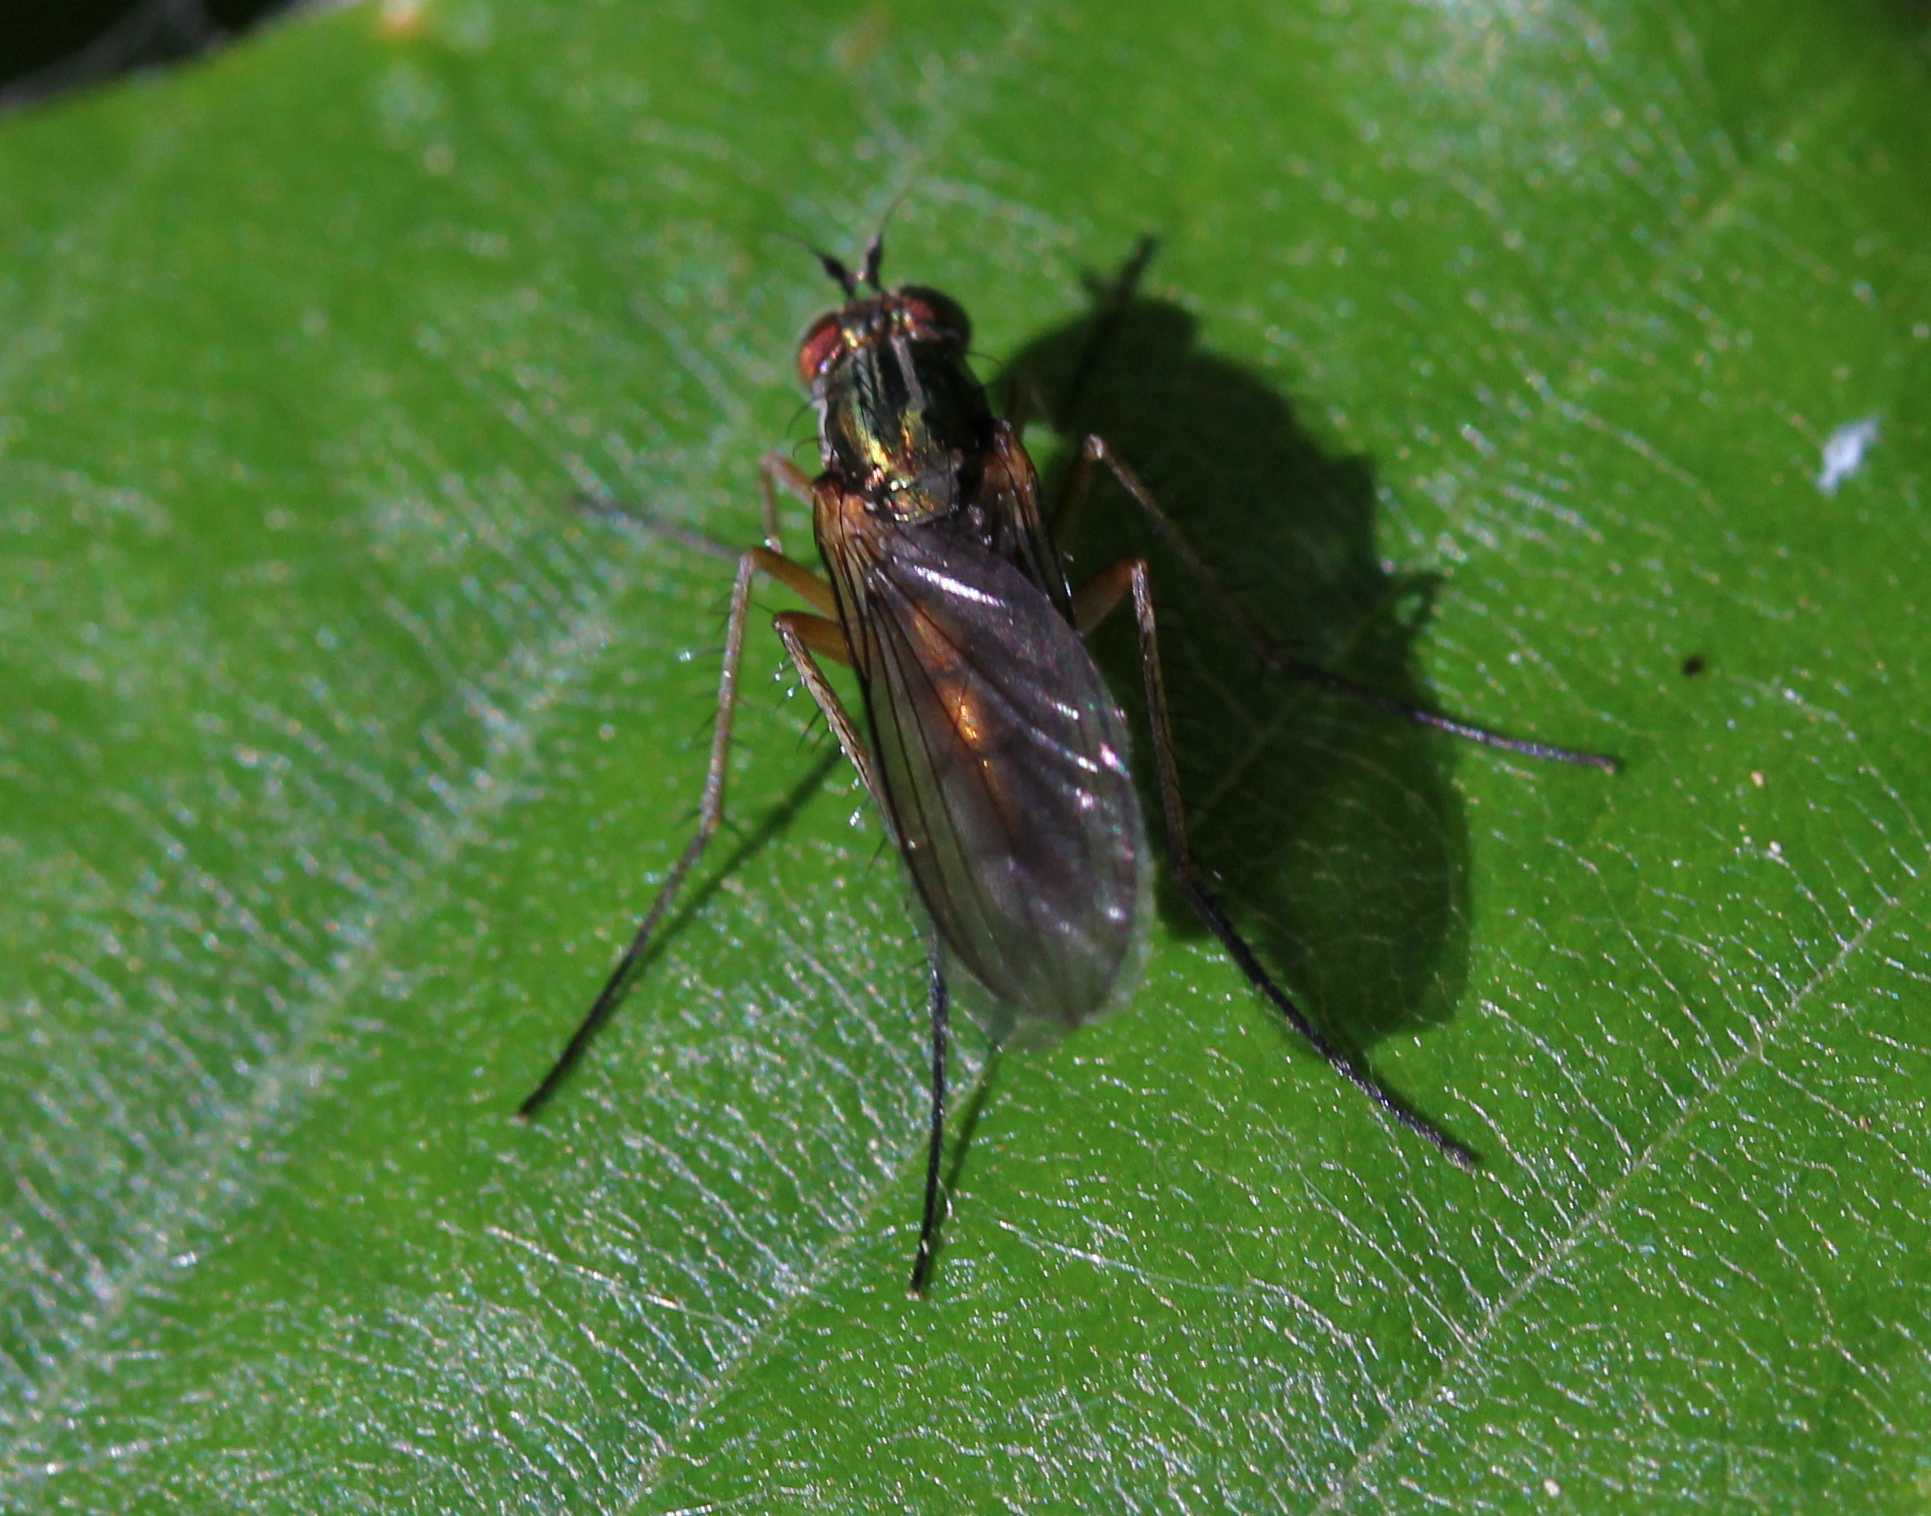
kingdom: Animalia
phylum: Arthropoda
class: Insecta
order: Diptera
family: Dolichopodidae
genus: Dolichopus
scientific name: Dolichopus
